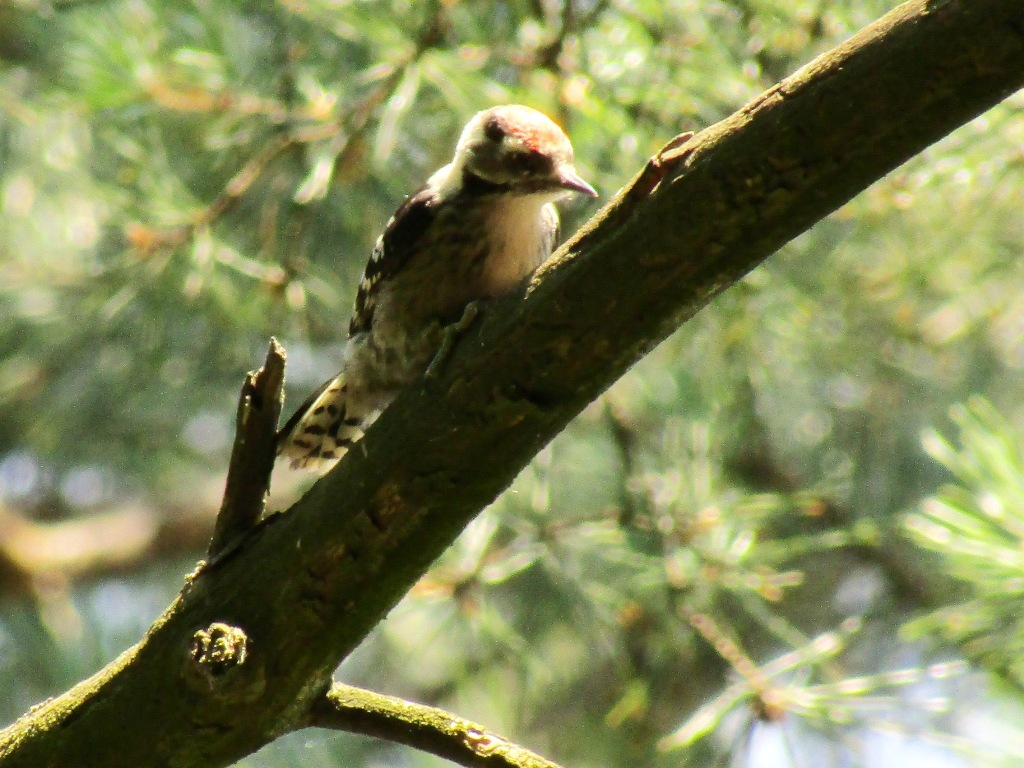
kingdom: Animalia
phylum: Chordata
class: Aves
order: Piciformes
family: Picidae
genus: Dryobates
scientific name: Dryobates minor
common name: Lesser spotted woodpecker
